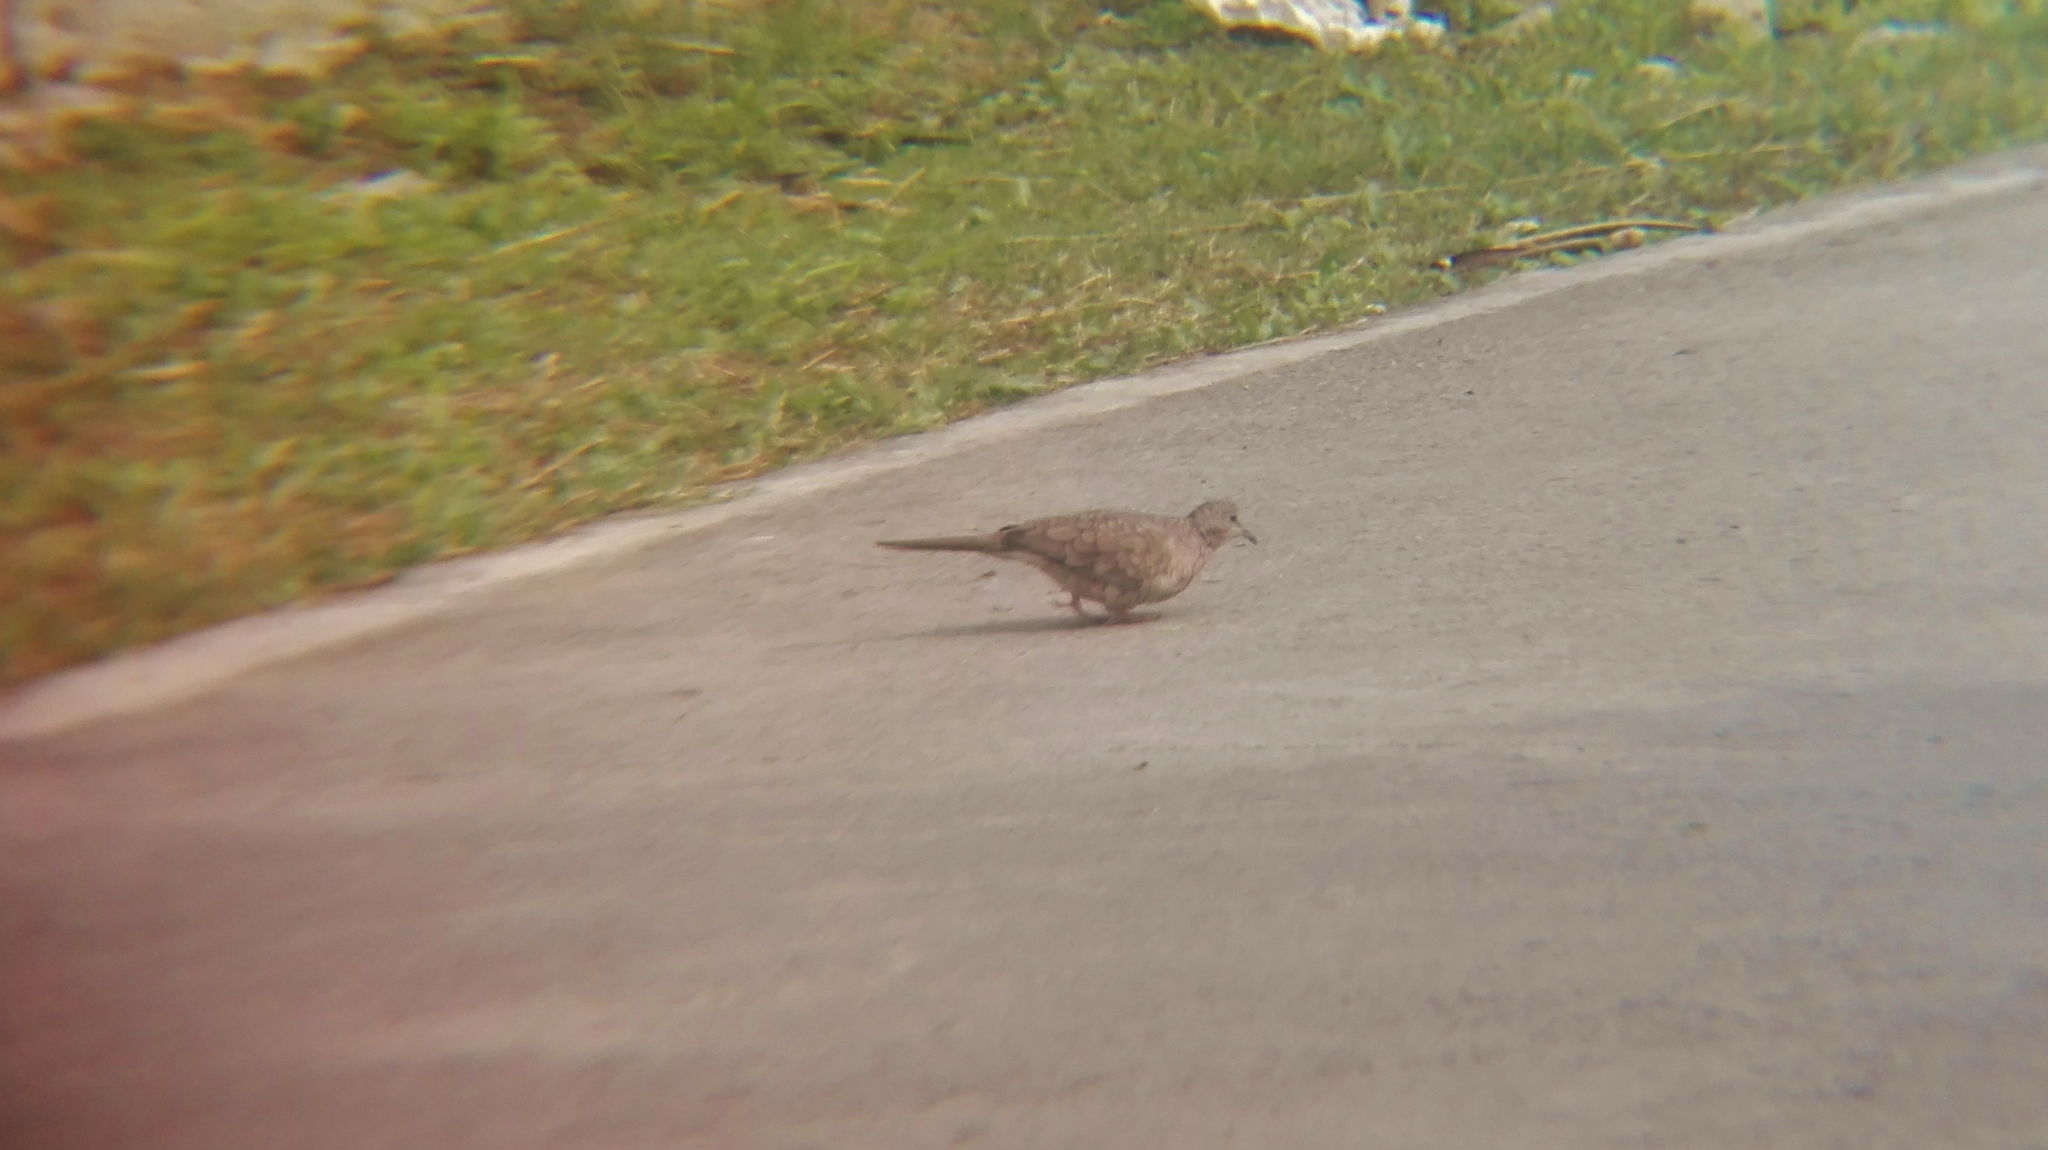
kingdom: Animalia
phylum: Chordata
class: Aves
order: Columbiformes
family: Columbidae
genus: Columbina
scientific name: Columbina inca
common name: Inca dove
